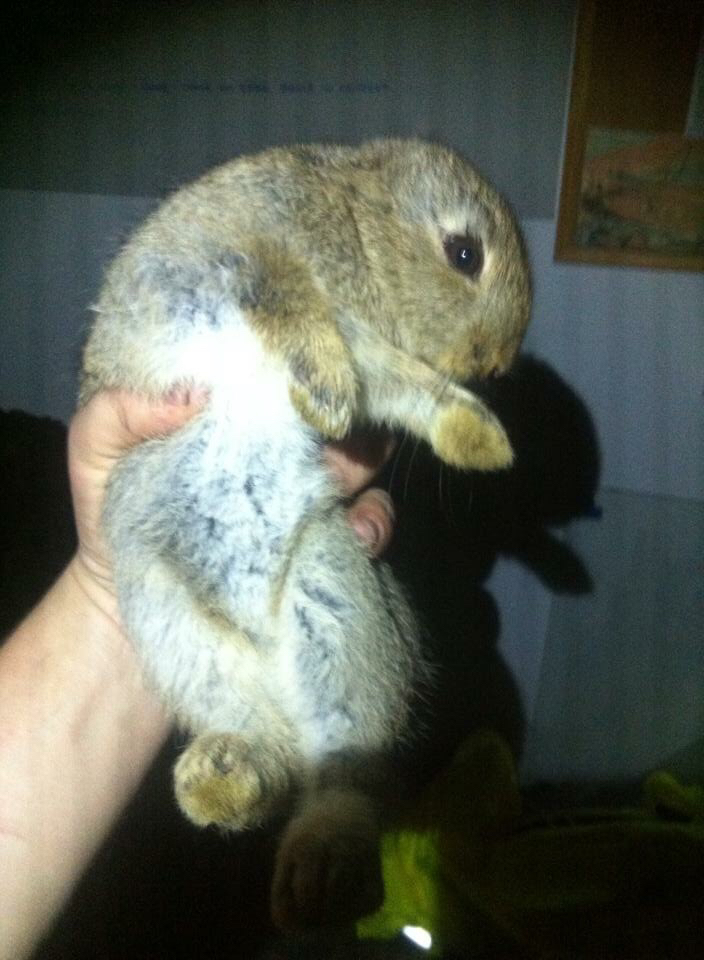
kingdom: Animalia
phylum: Chordata
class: Mammalia
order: Lagomorpha
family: Leporidae
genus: Oryctolagus
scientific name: Oryctolagus cuniculus
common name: European rabbit
